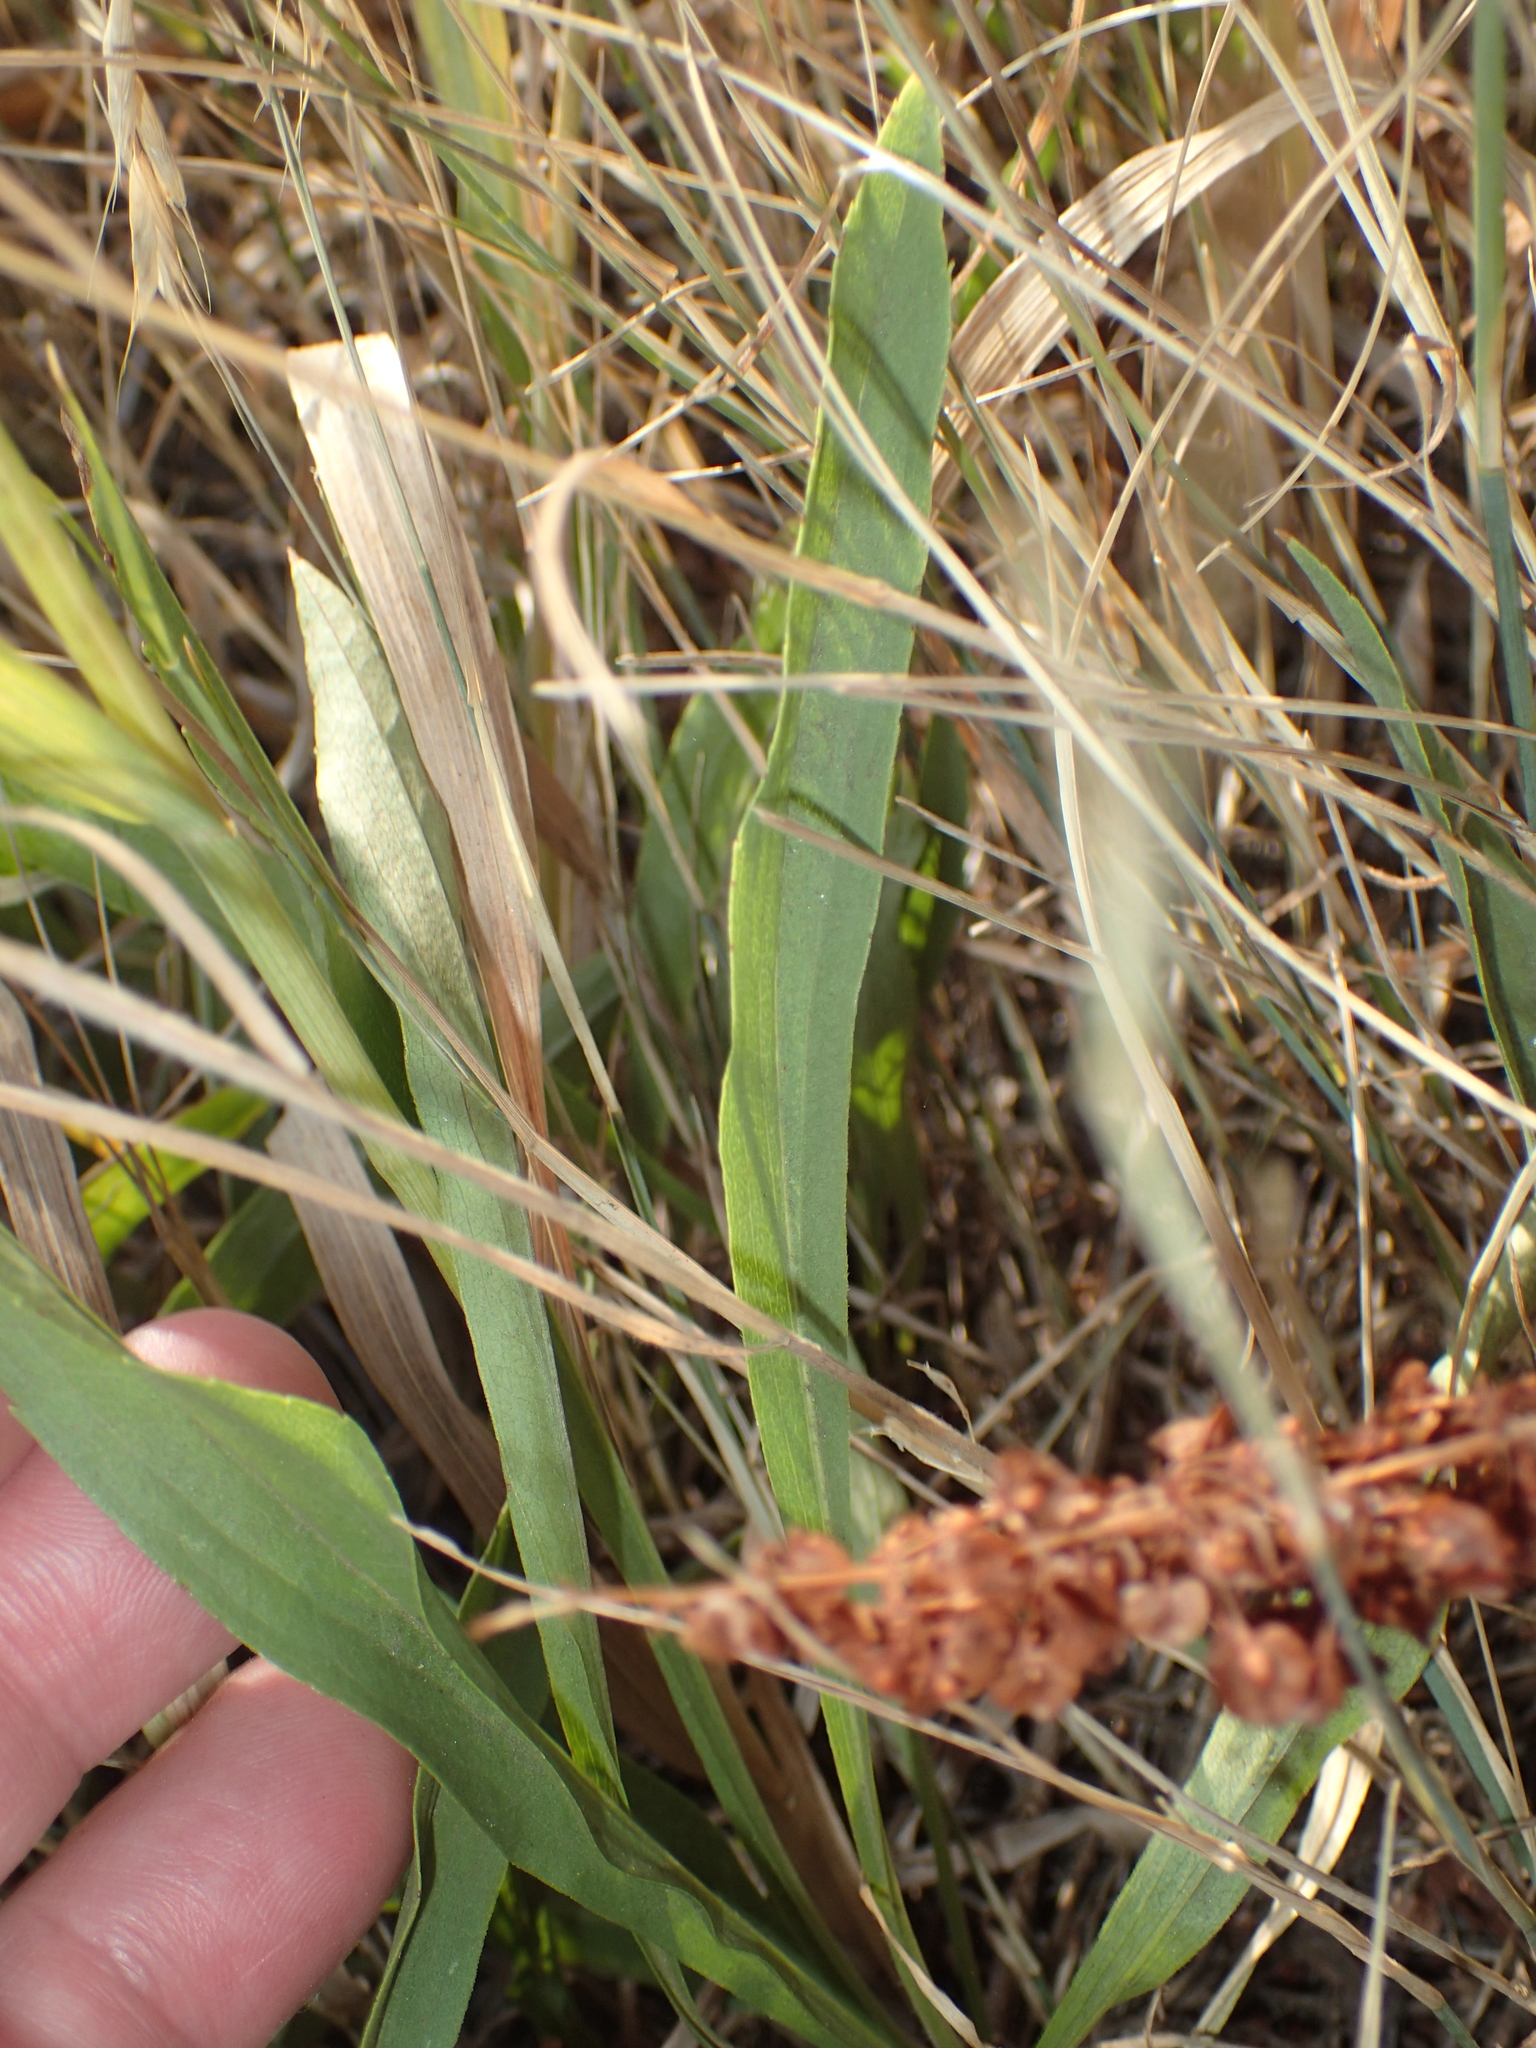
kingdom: Plantae
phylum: Tracheophyta
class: Magnoliopsida
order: Asterales
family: Asteraceae
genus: Solidago
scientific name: Solidago missouriensis
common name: Prairie goldenrod
